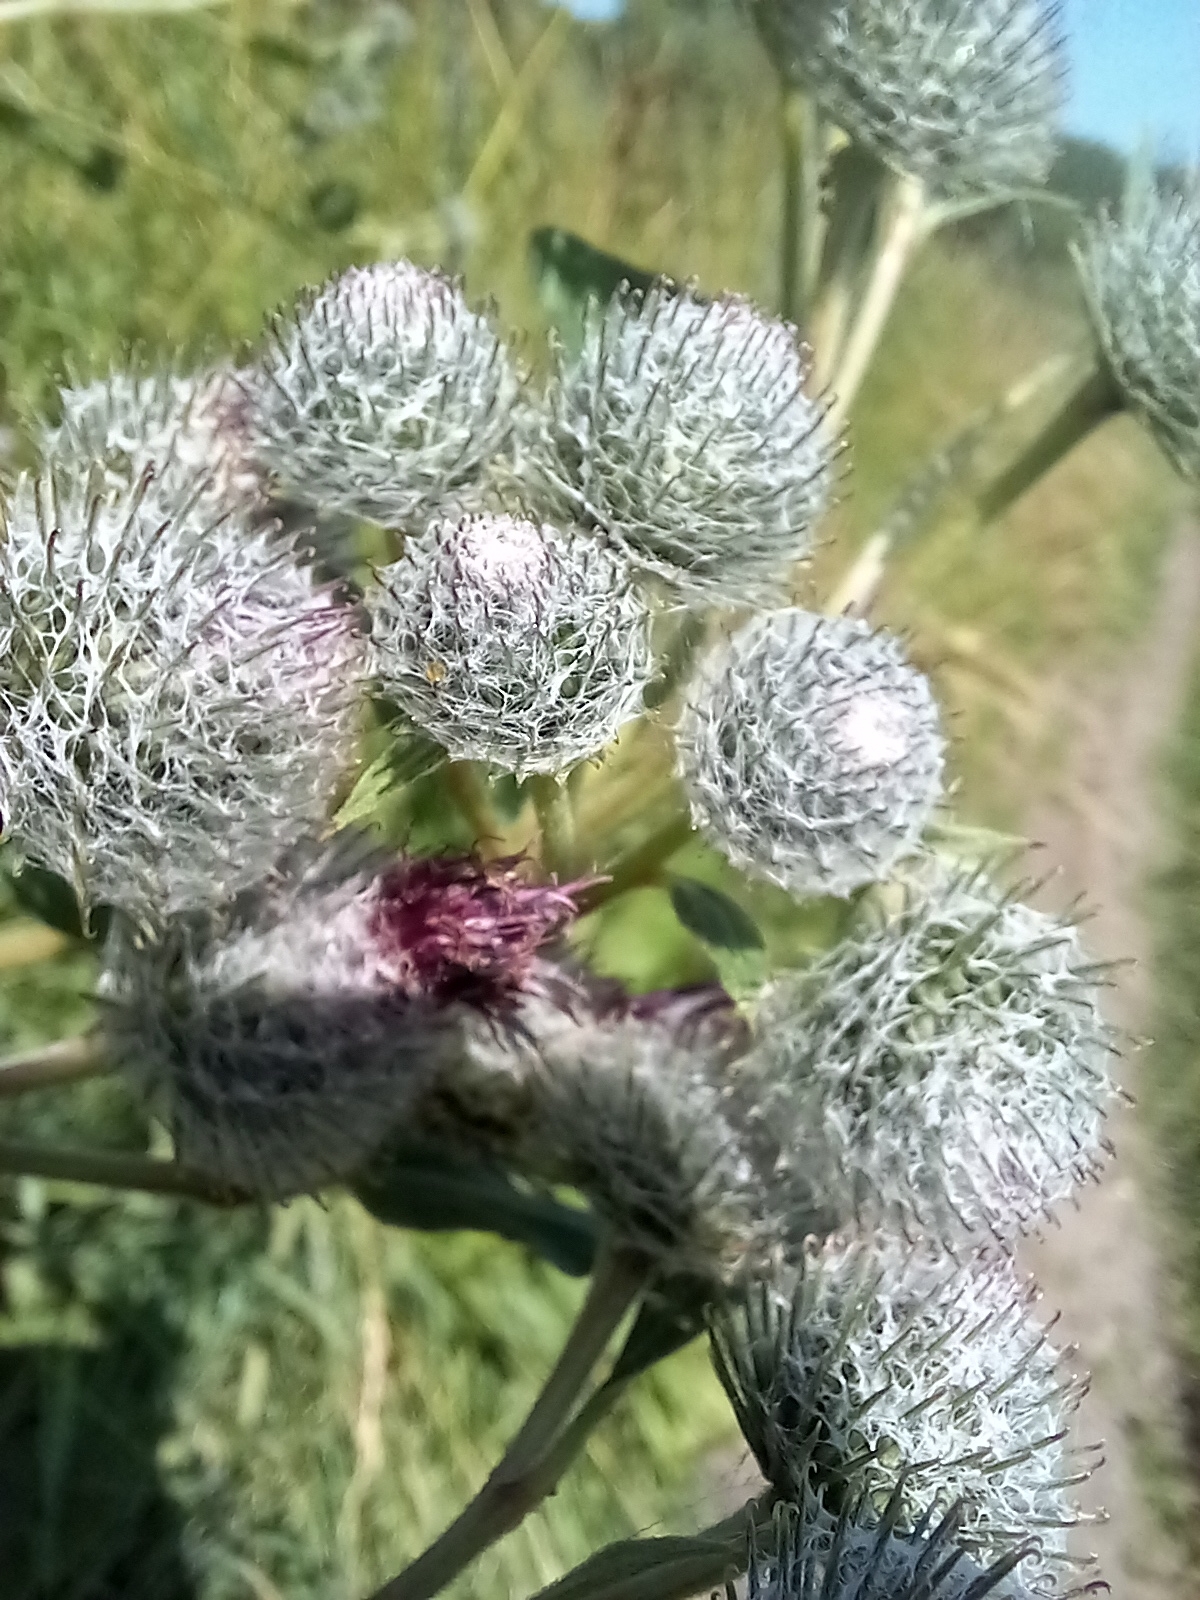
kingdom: Plantae
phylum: Tracheophyta
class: Magnoliopsida
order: Asterales
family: Asteraceae
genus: Arctium
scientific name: Arctium tomentosum
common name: Woolly burdock
